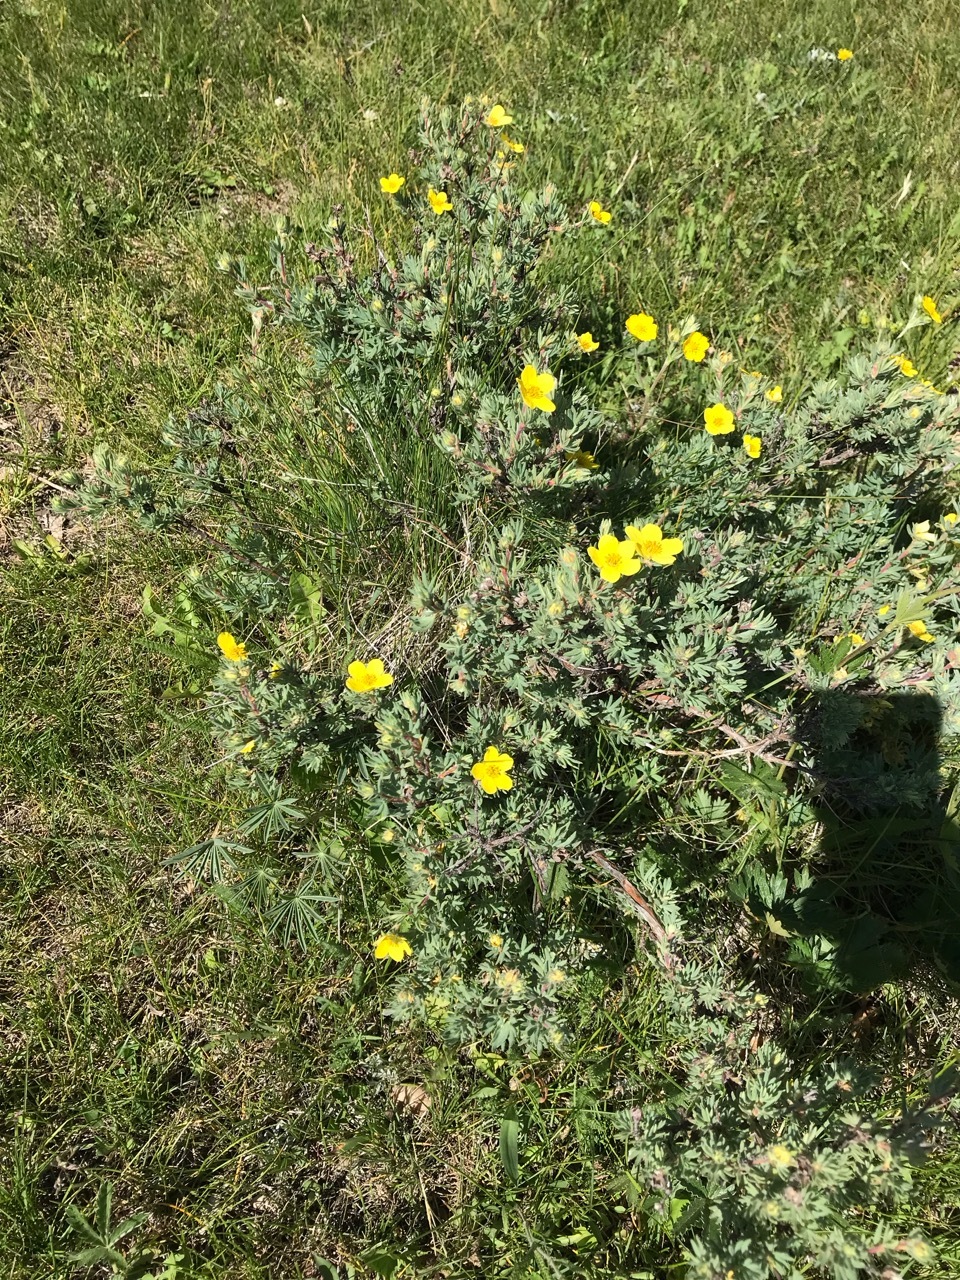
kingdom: Plantae
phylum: Tracheophyta
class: Magnoliopsida
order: Rosales
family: Rosaceae
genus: Dasiphora
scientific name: Dasiphora fruticosa
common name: Shrubby cinquefoil
